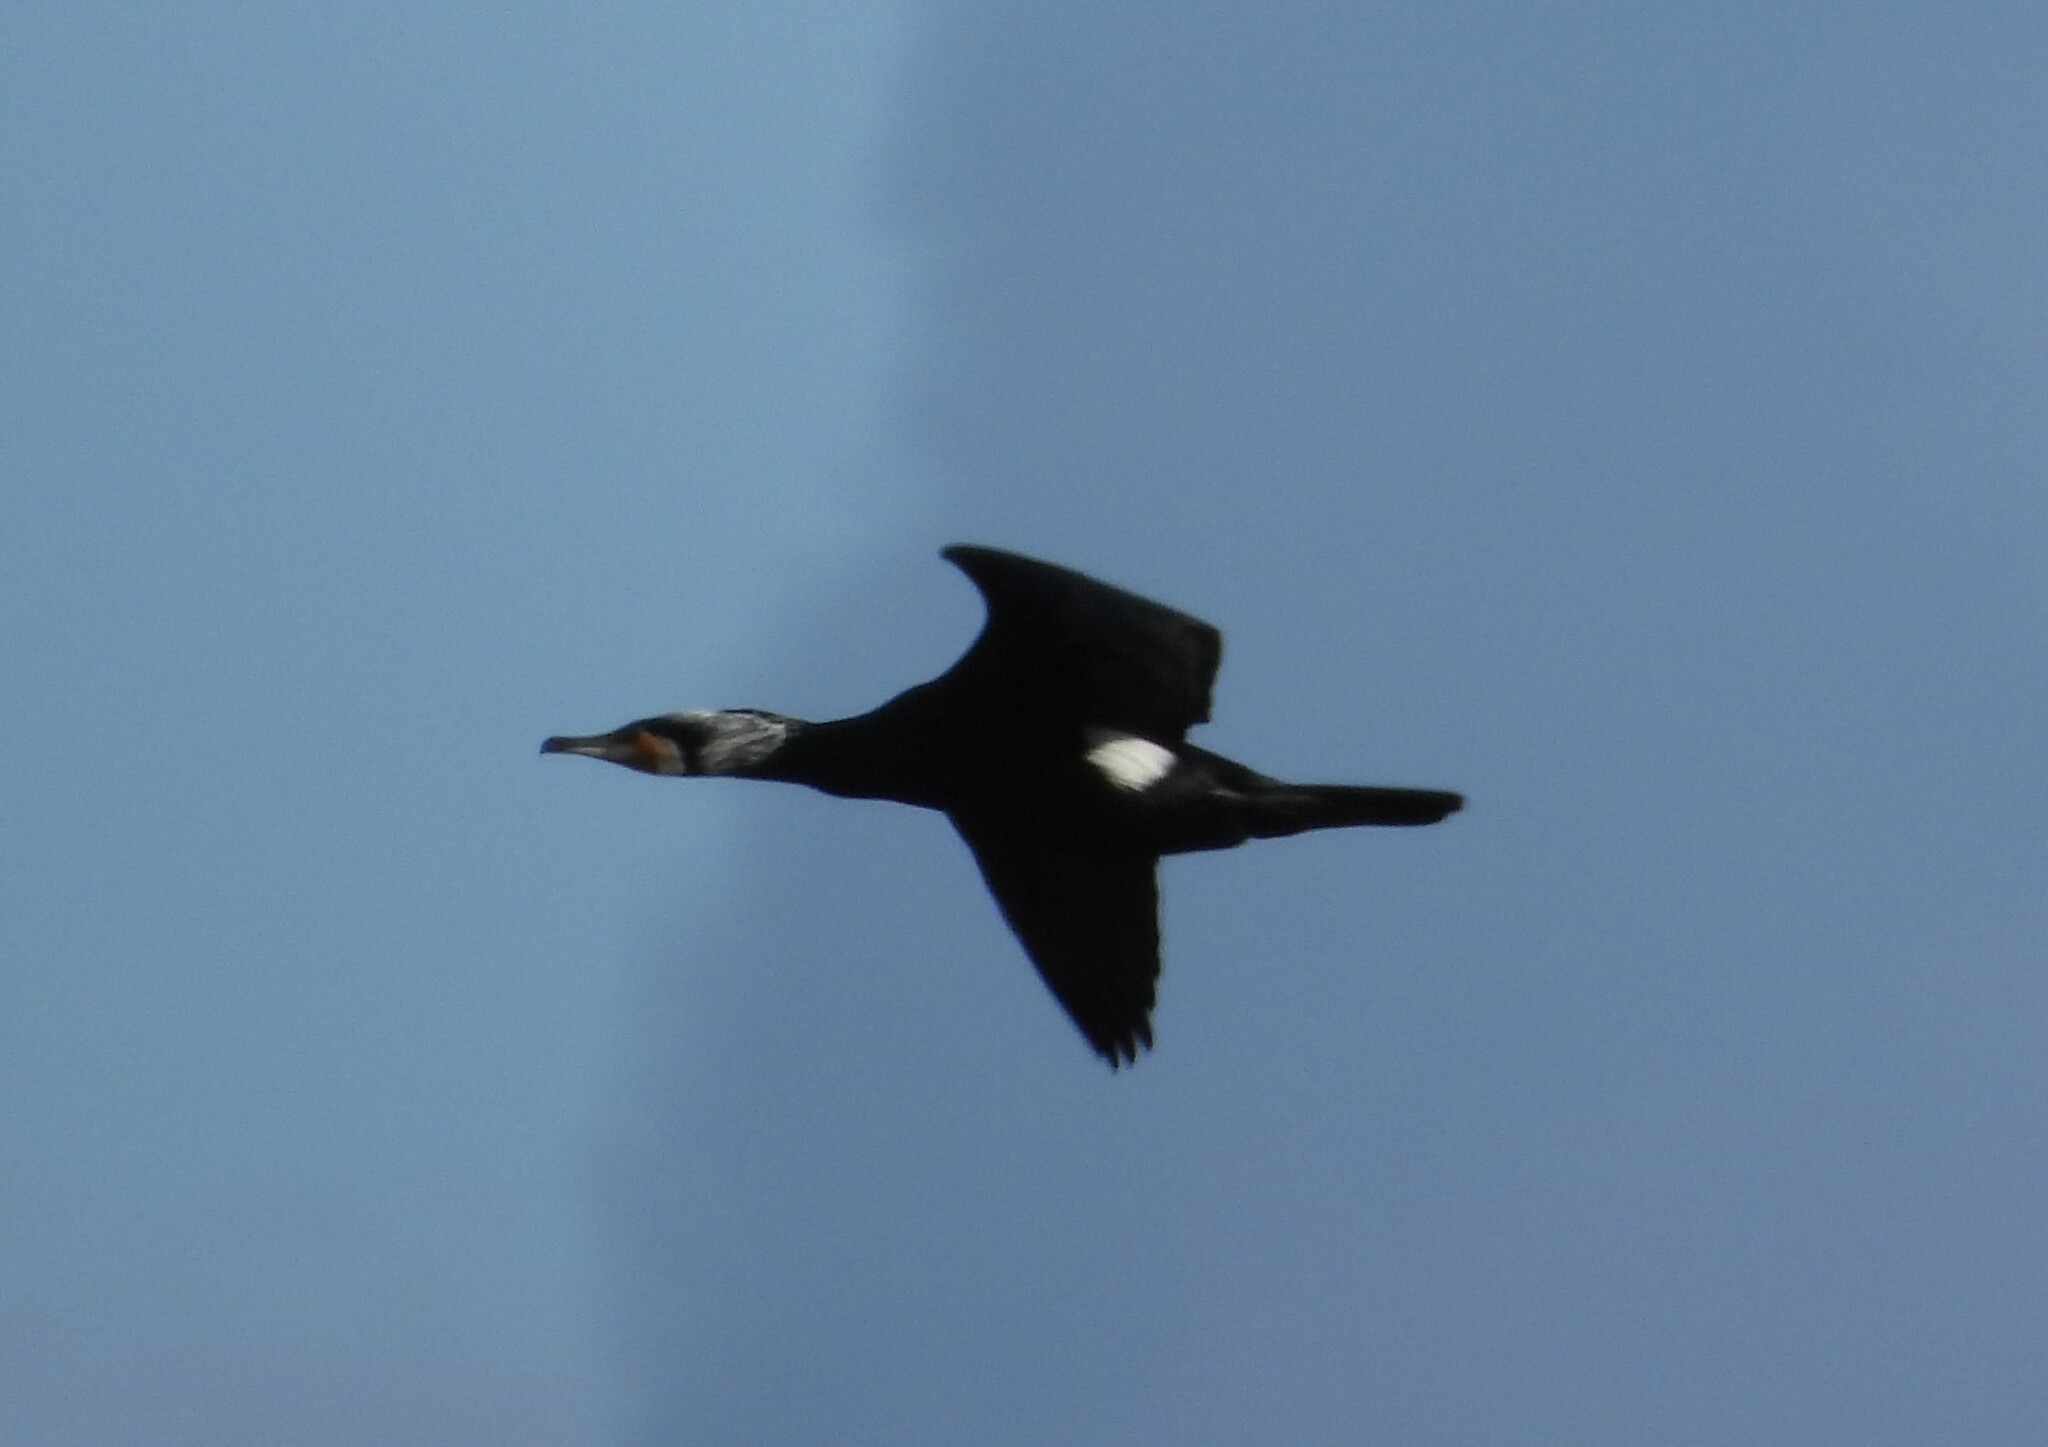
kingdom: Animalia
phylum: Chordata
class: Aves
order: Suliformes
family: Phalacrocoracidae
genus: Phalacrocorax
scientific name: Phalacrocorax carbo
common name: Great cormorant
